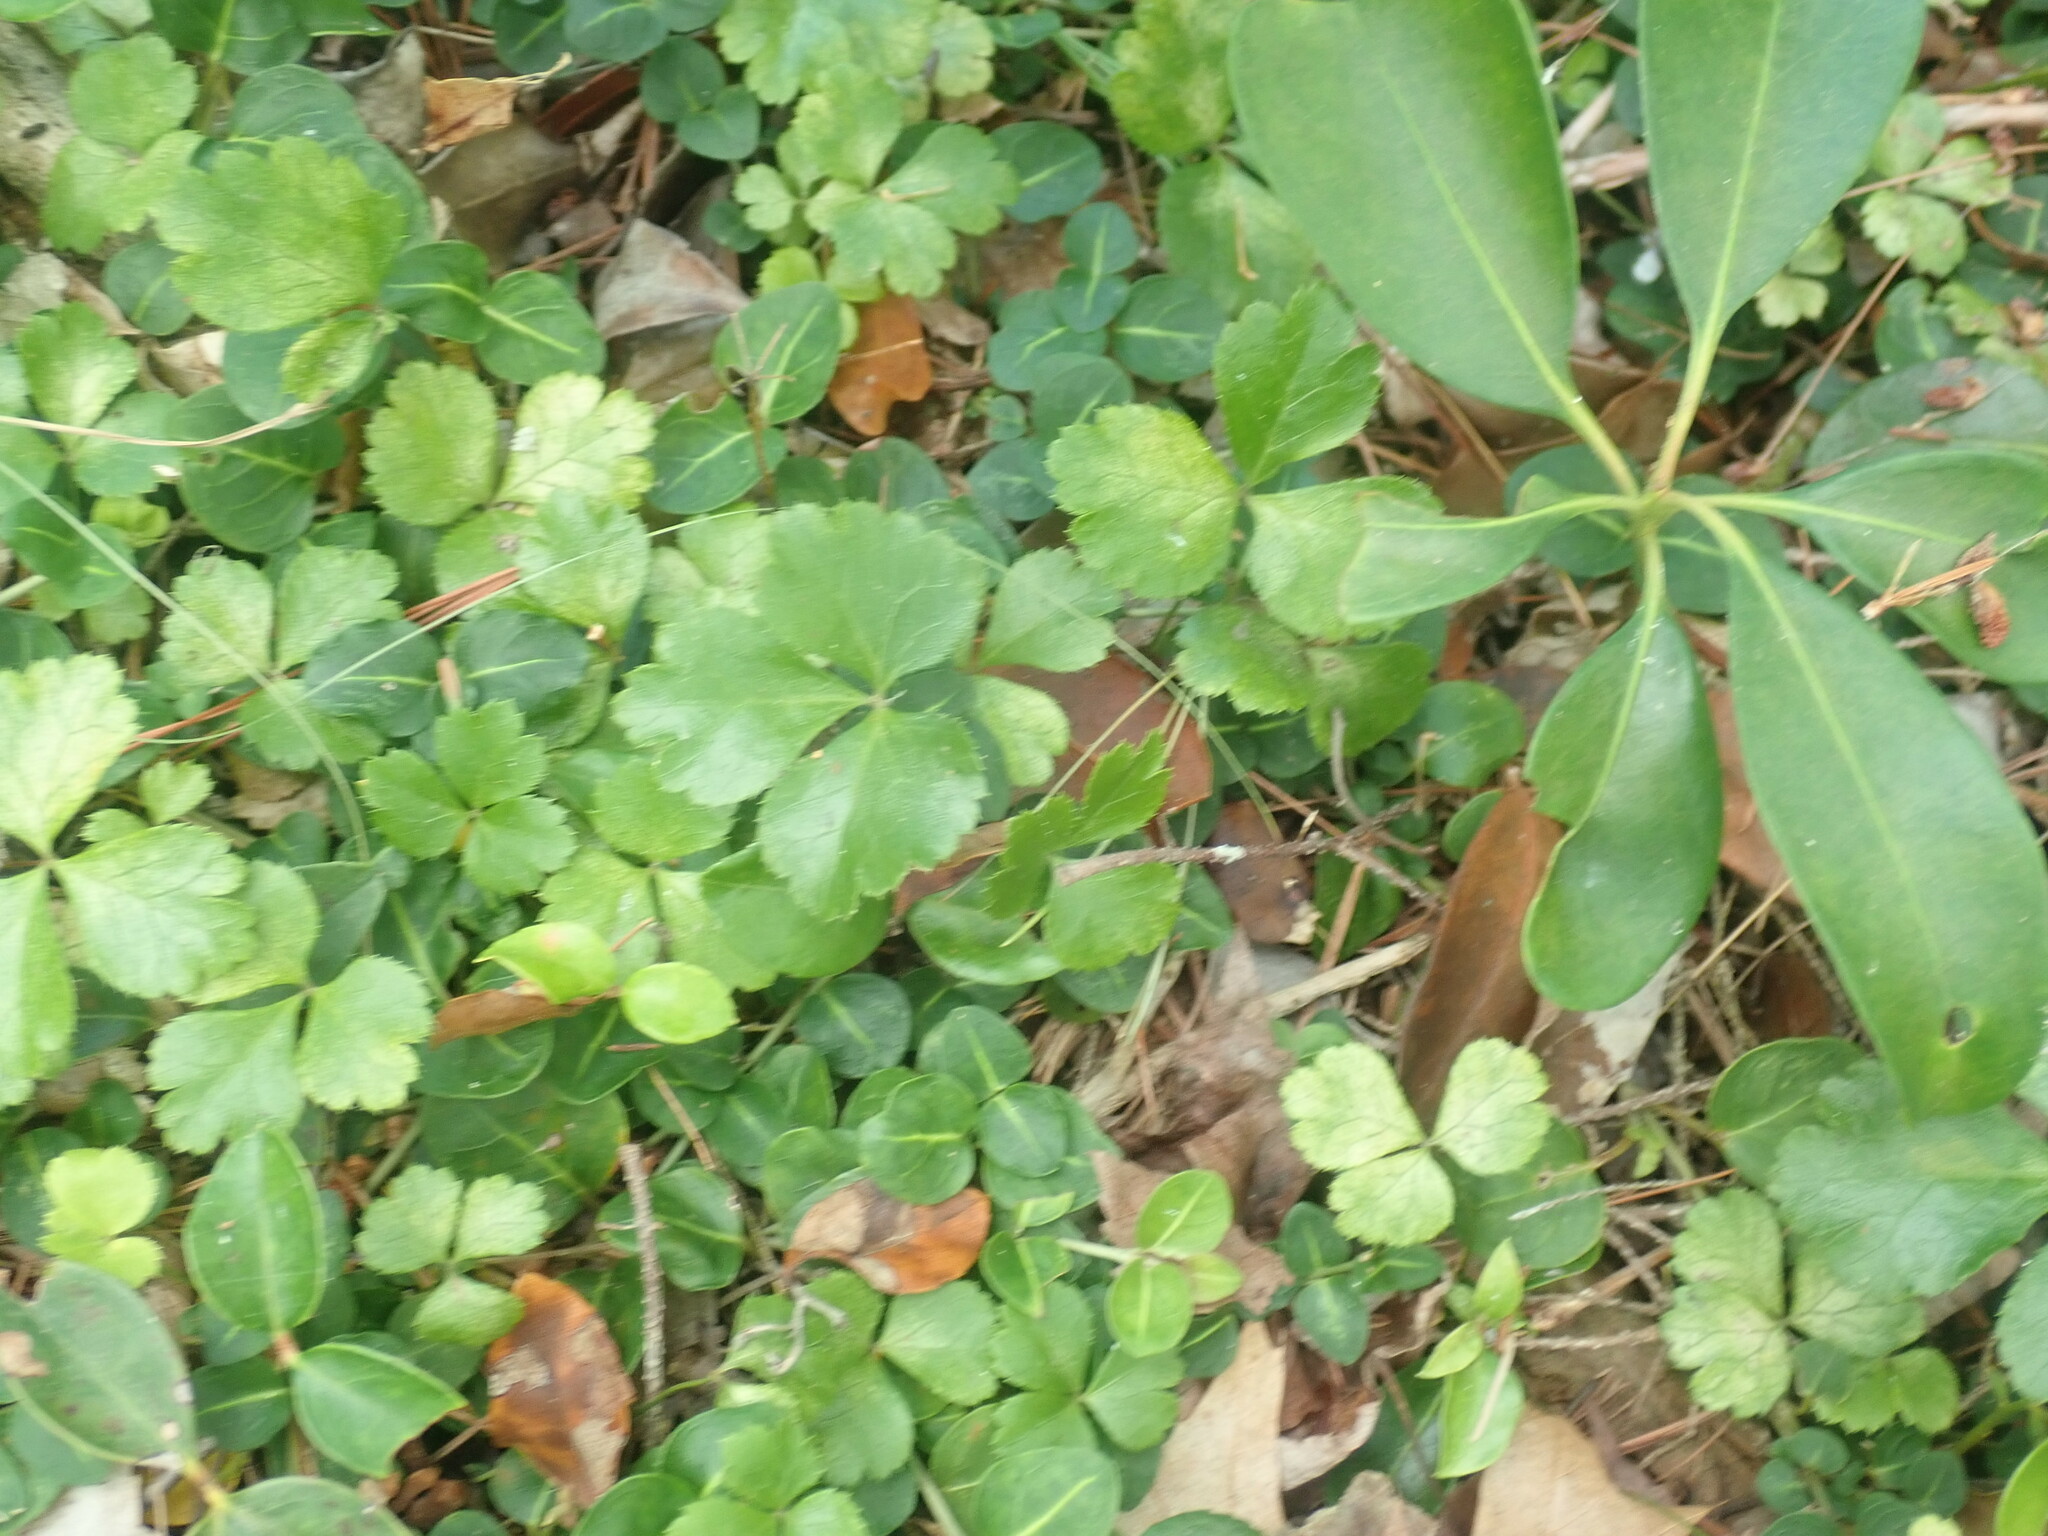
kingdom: Plantae
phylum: Tracheophyta
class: Magnoliopsida
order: Ranunculales
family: Ranunculaceae
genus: Coptis
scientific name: Coptis trifolia
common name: Canker-root
